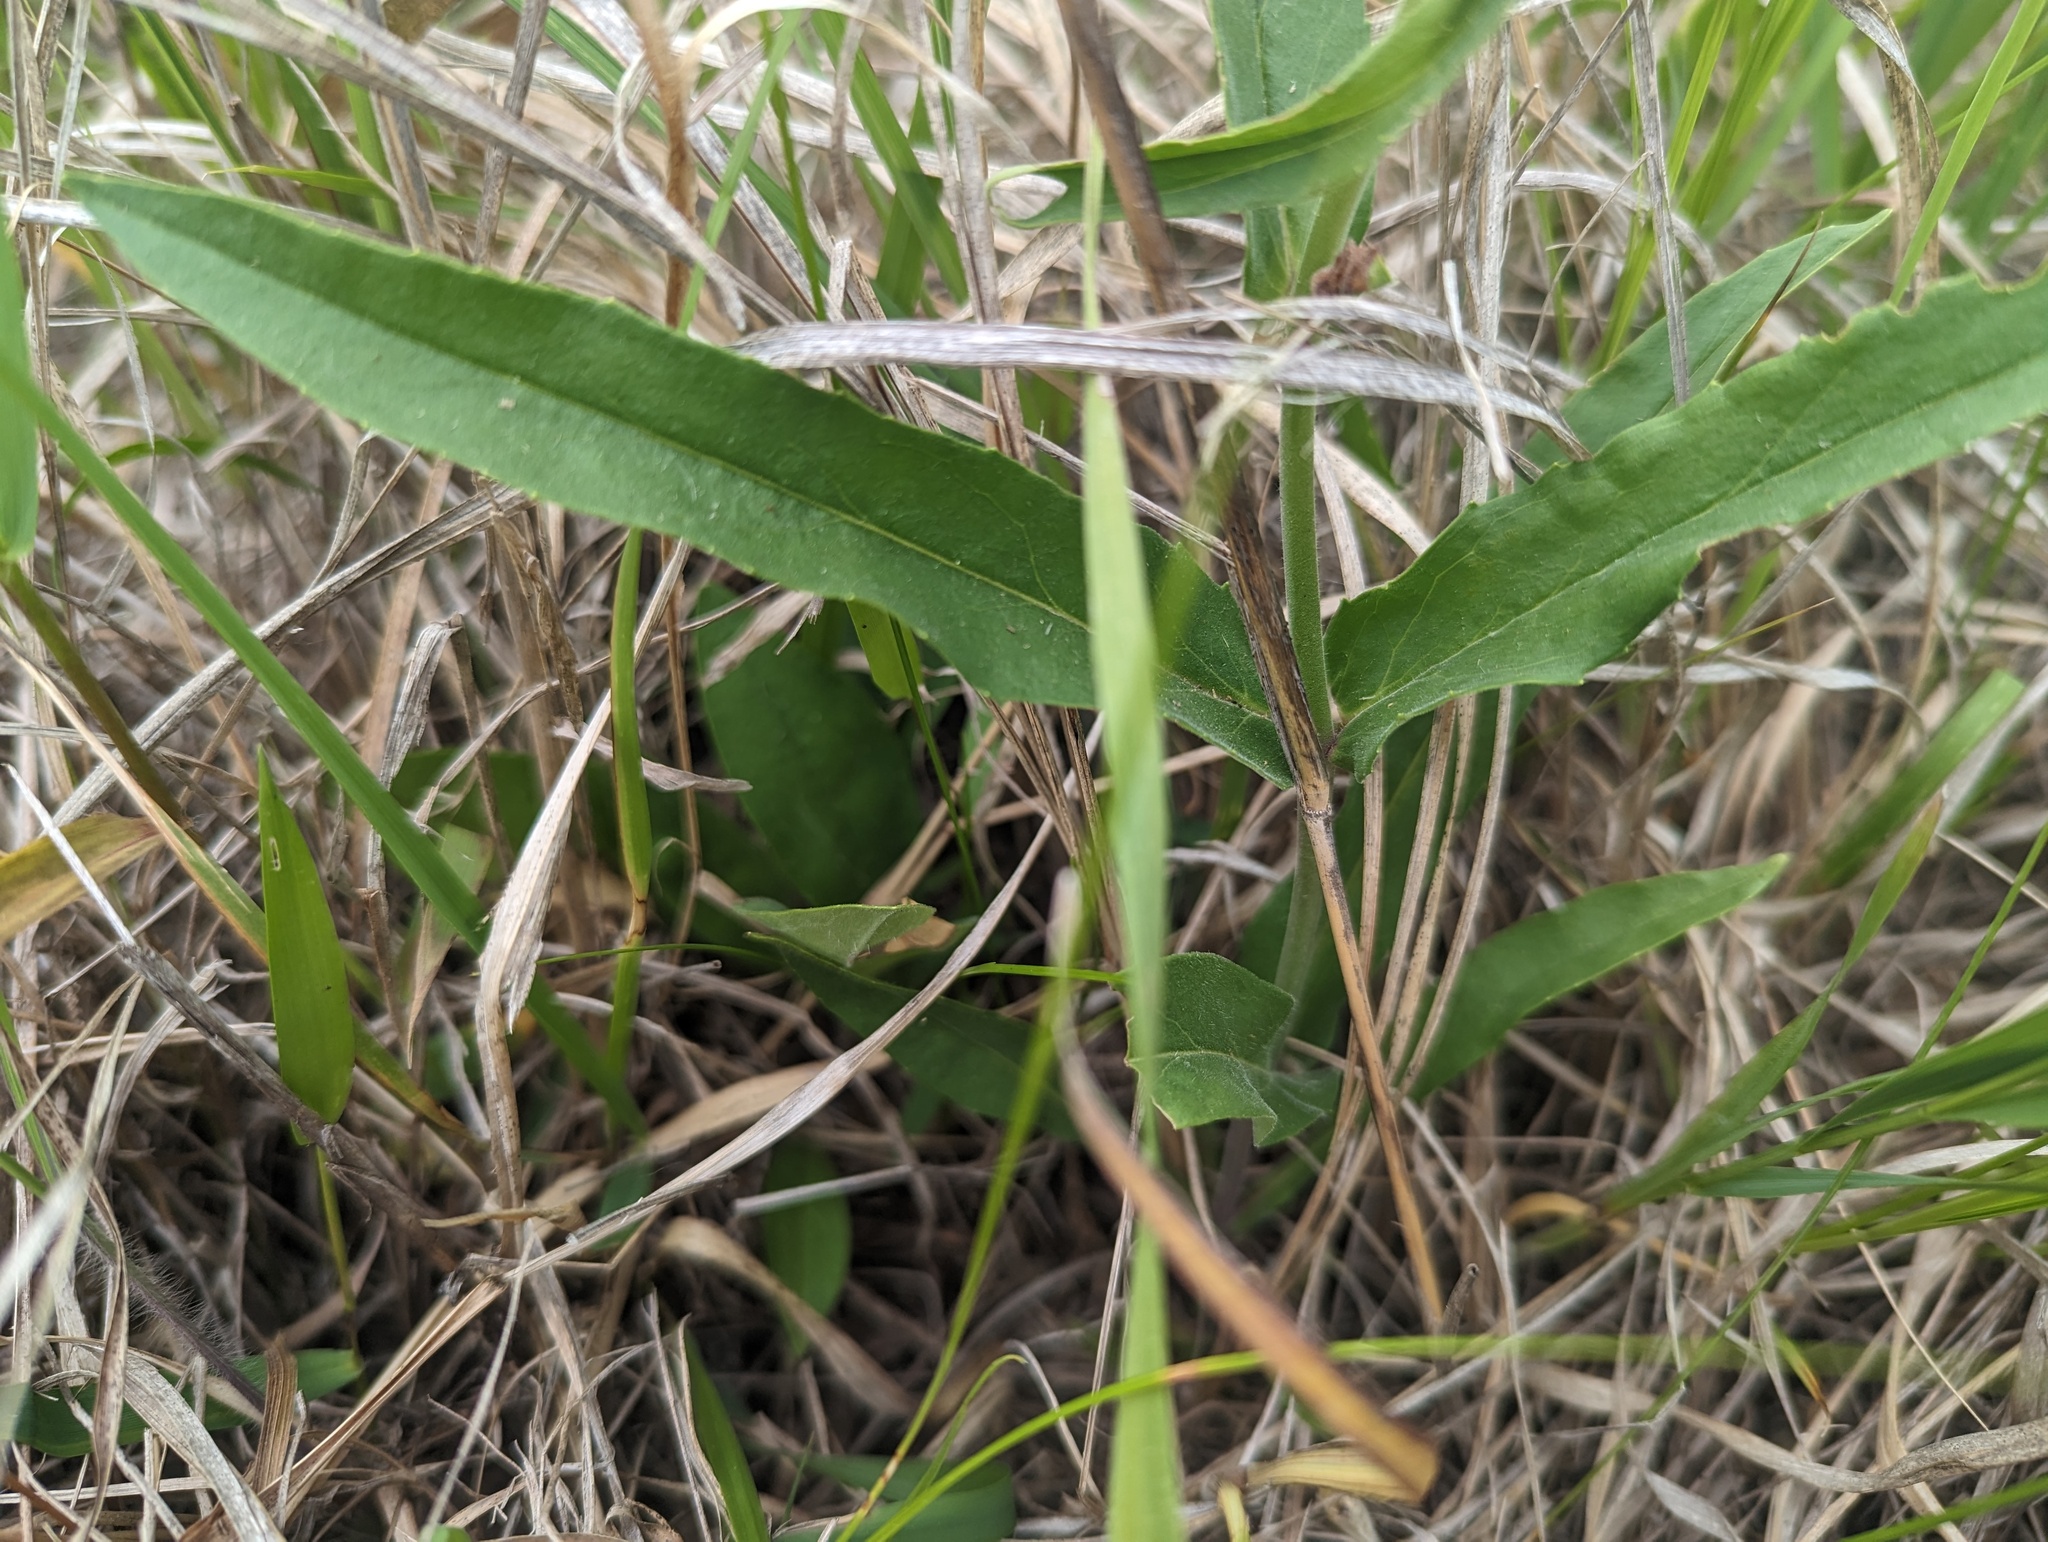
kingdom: Plantae
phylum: Tracheophyta
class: Magnoliopsida
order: Lamiales
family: Plantaginaceae
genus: Penstemon
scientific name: Penstemon pallidus
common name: Pale beardtongue
